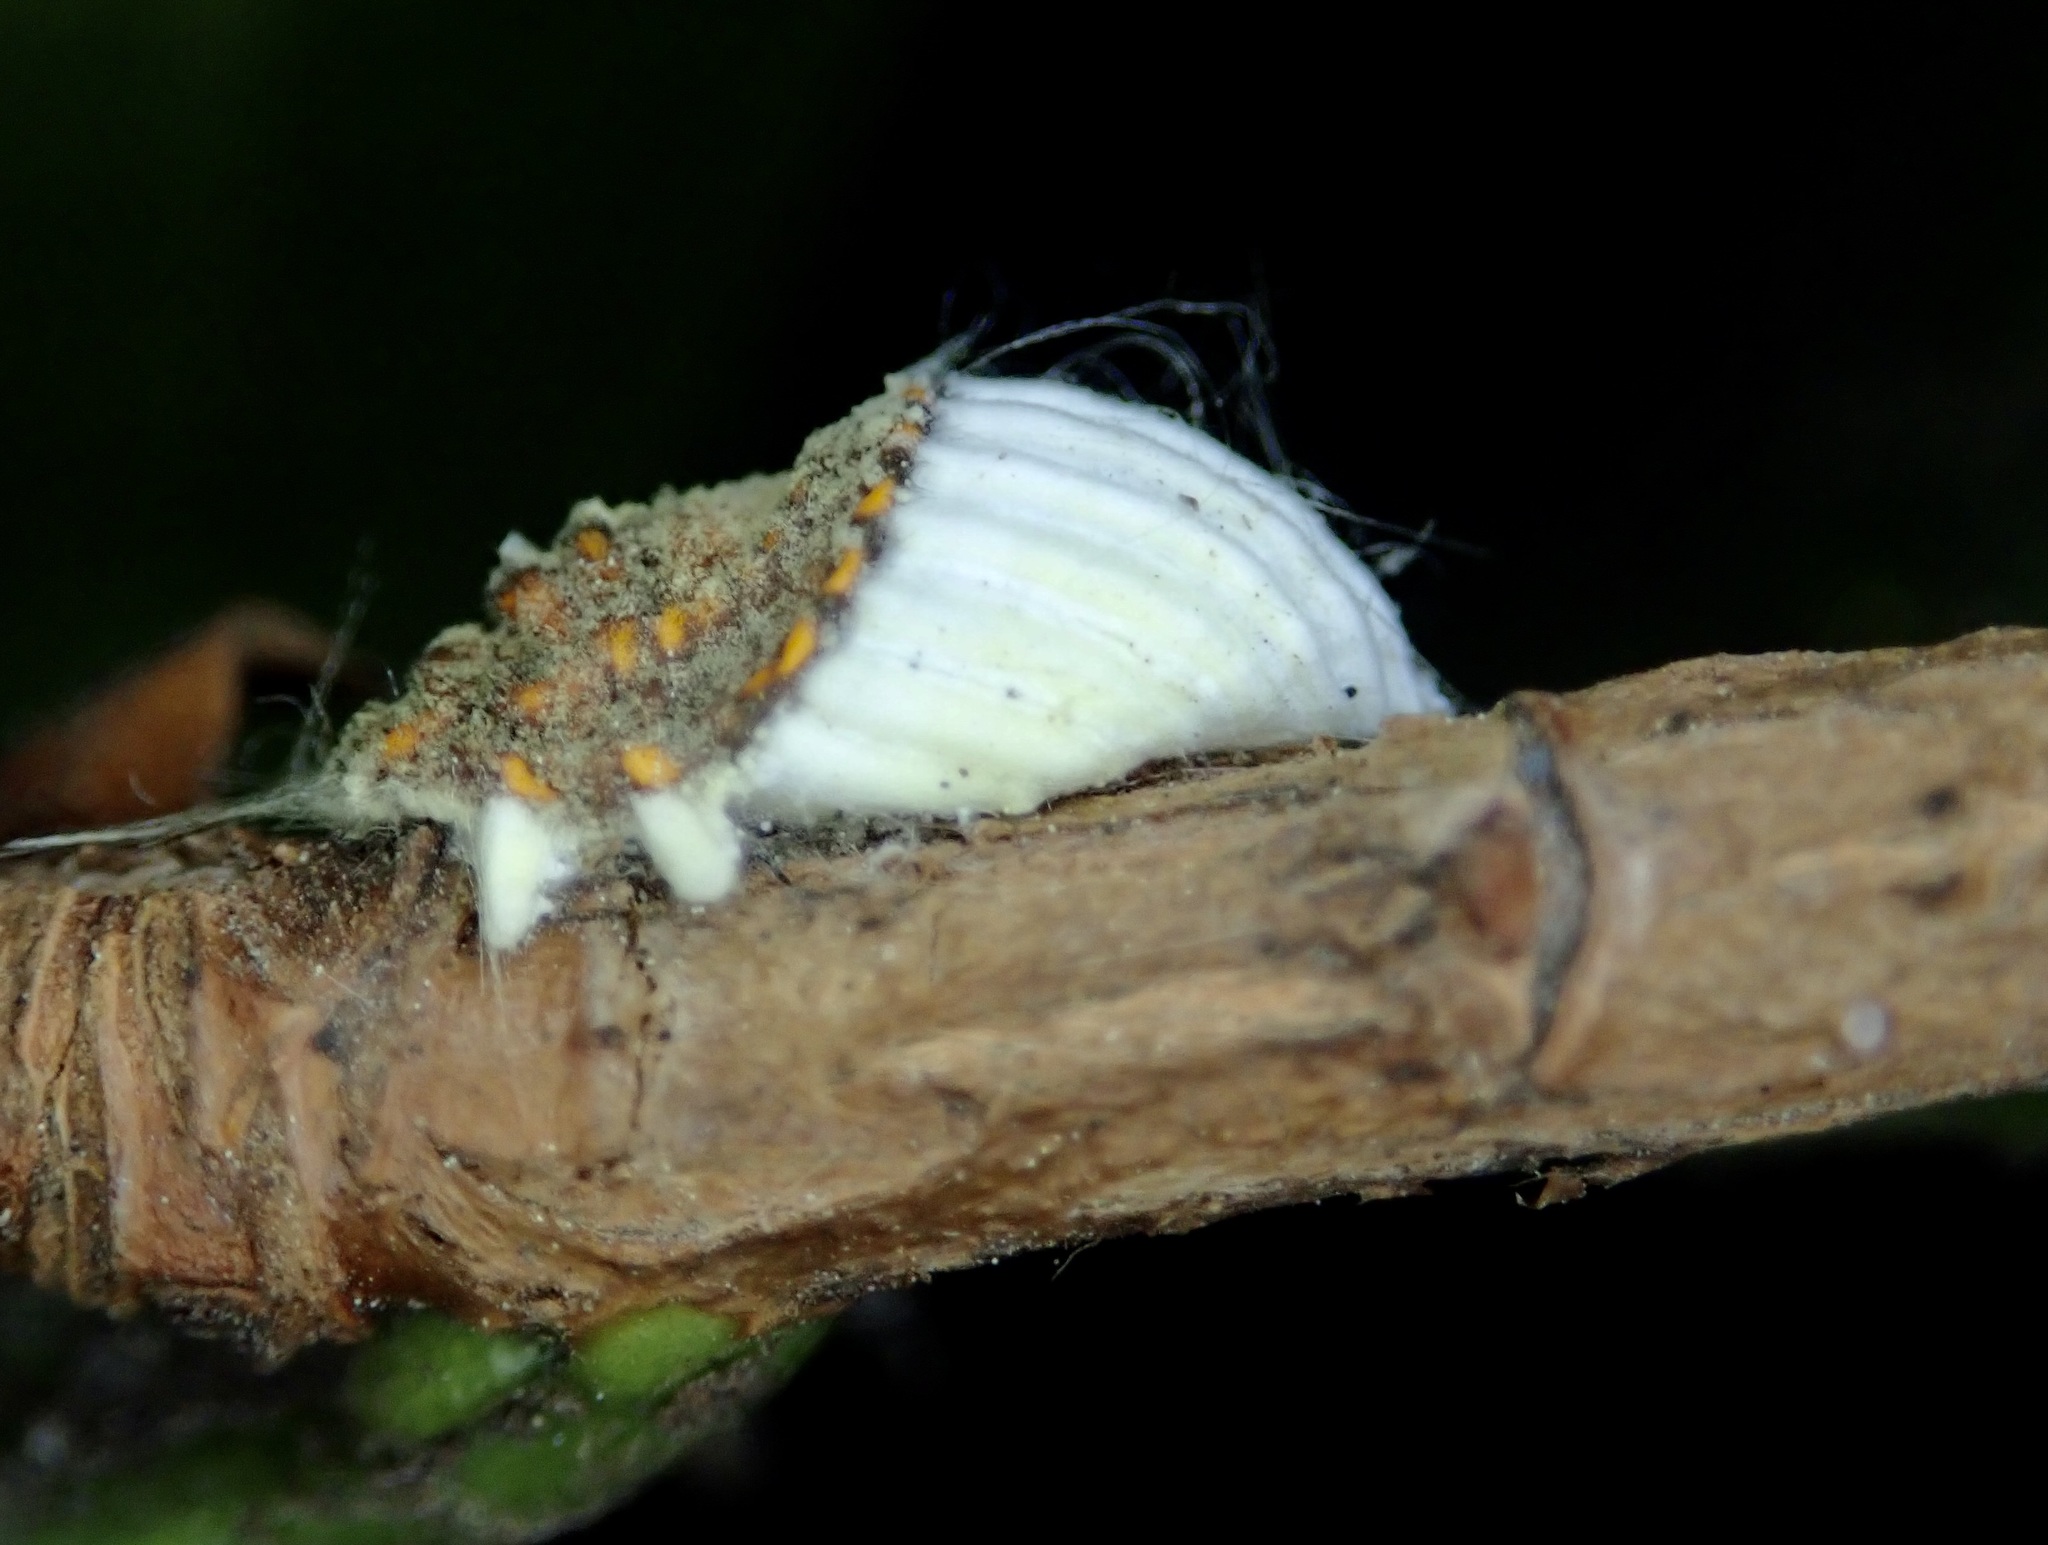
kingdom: Animalia
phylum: Arthropoda
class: Insecta
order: Hemiptera
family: Margarodidae
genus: Icerya
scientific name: Icerya purchasi
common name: Cottony cushion scale
